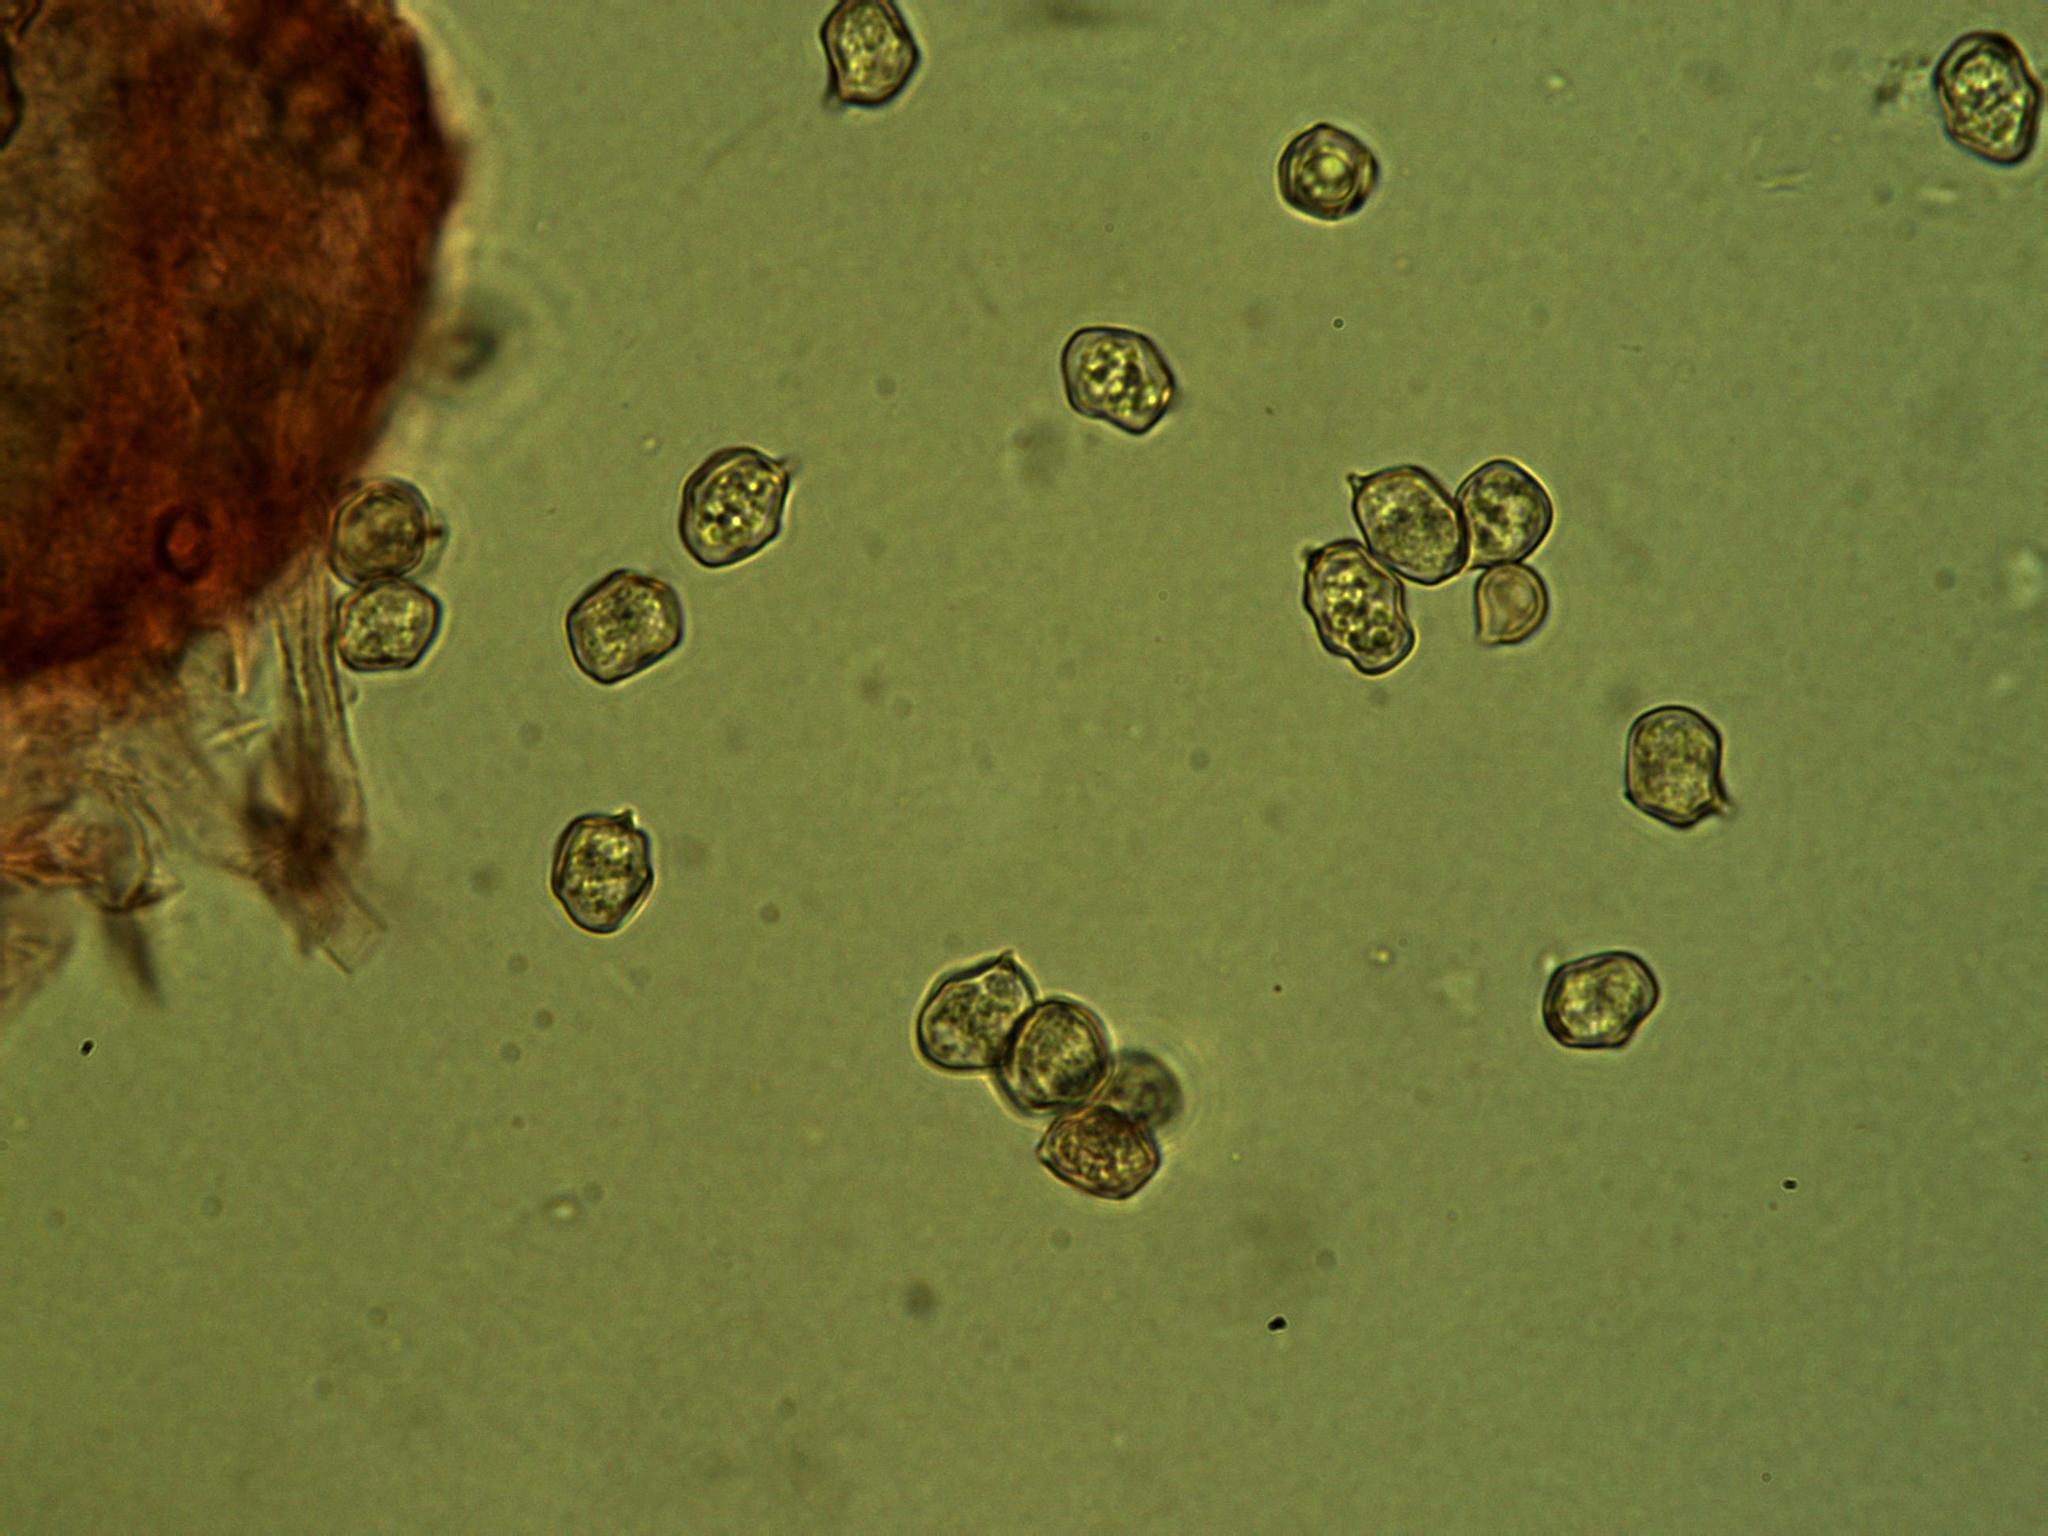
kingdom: Fungi
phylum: Basidiomycota
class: Agaricomycetes
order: Agaricales
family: Entolomataceae
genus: Entoloma
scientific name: Entoloma philocistus
